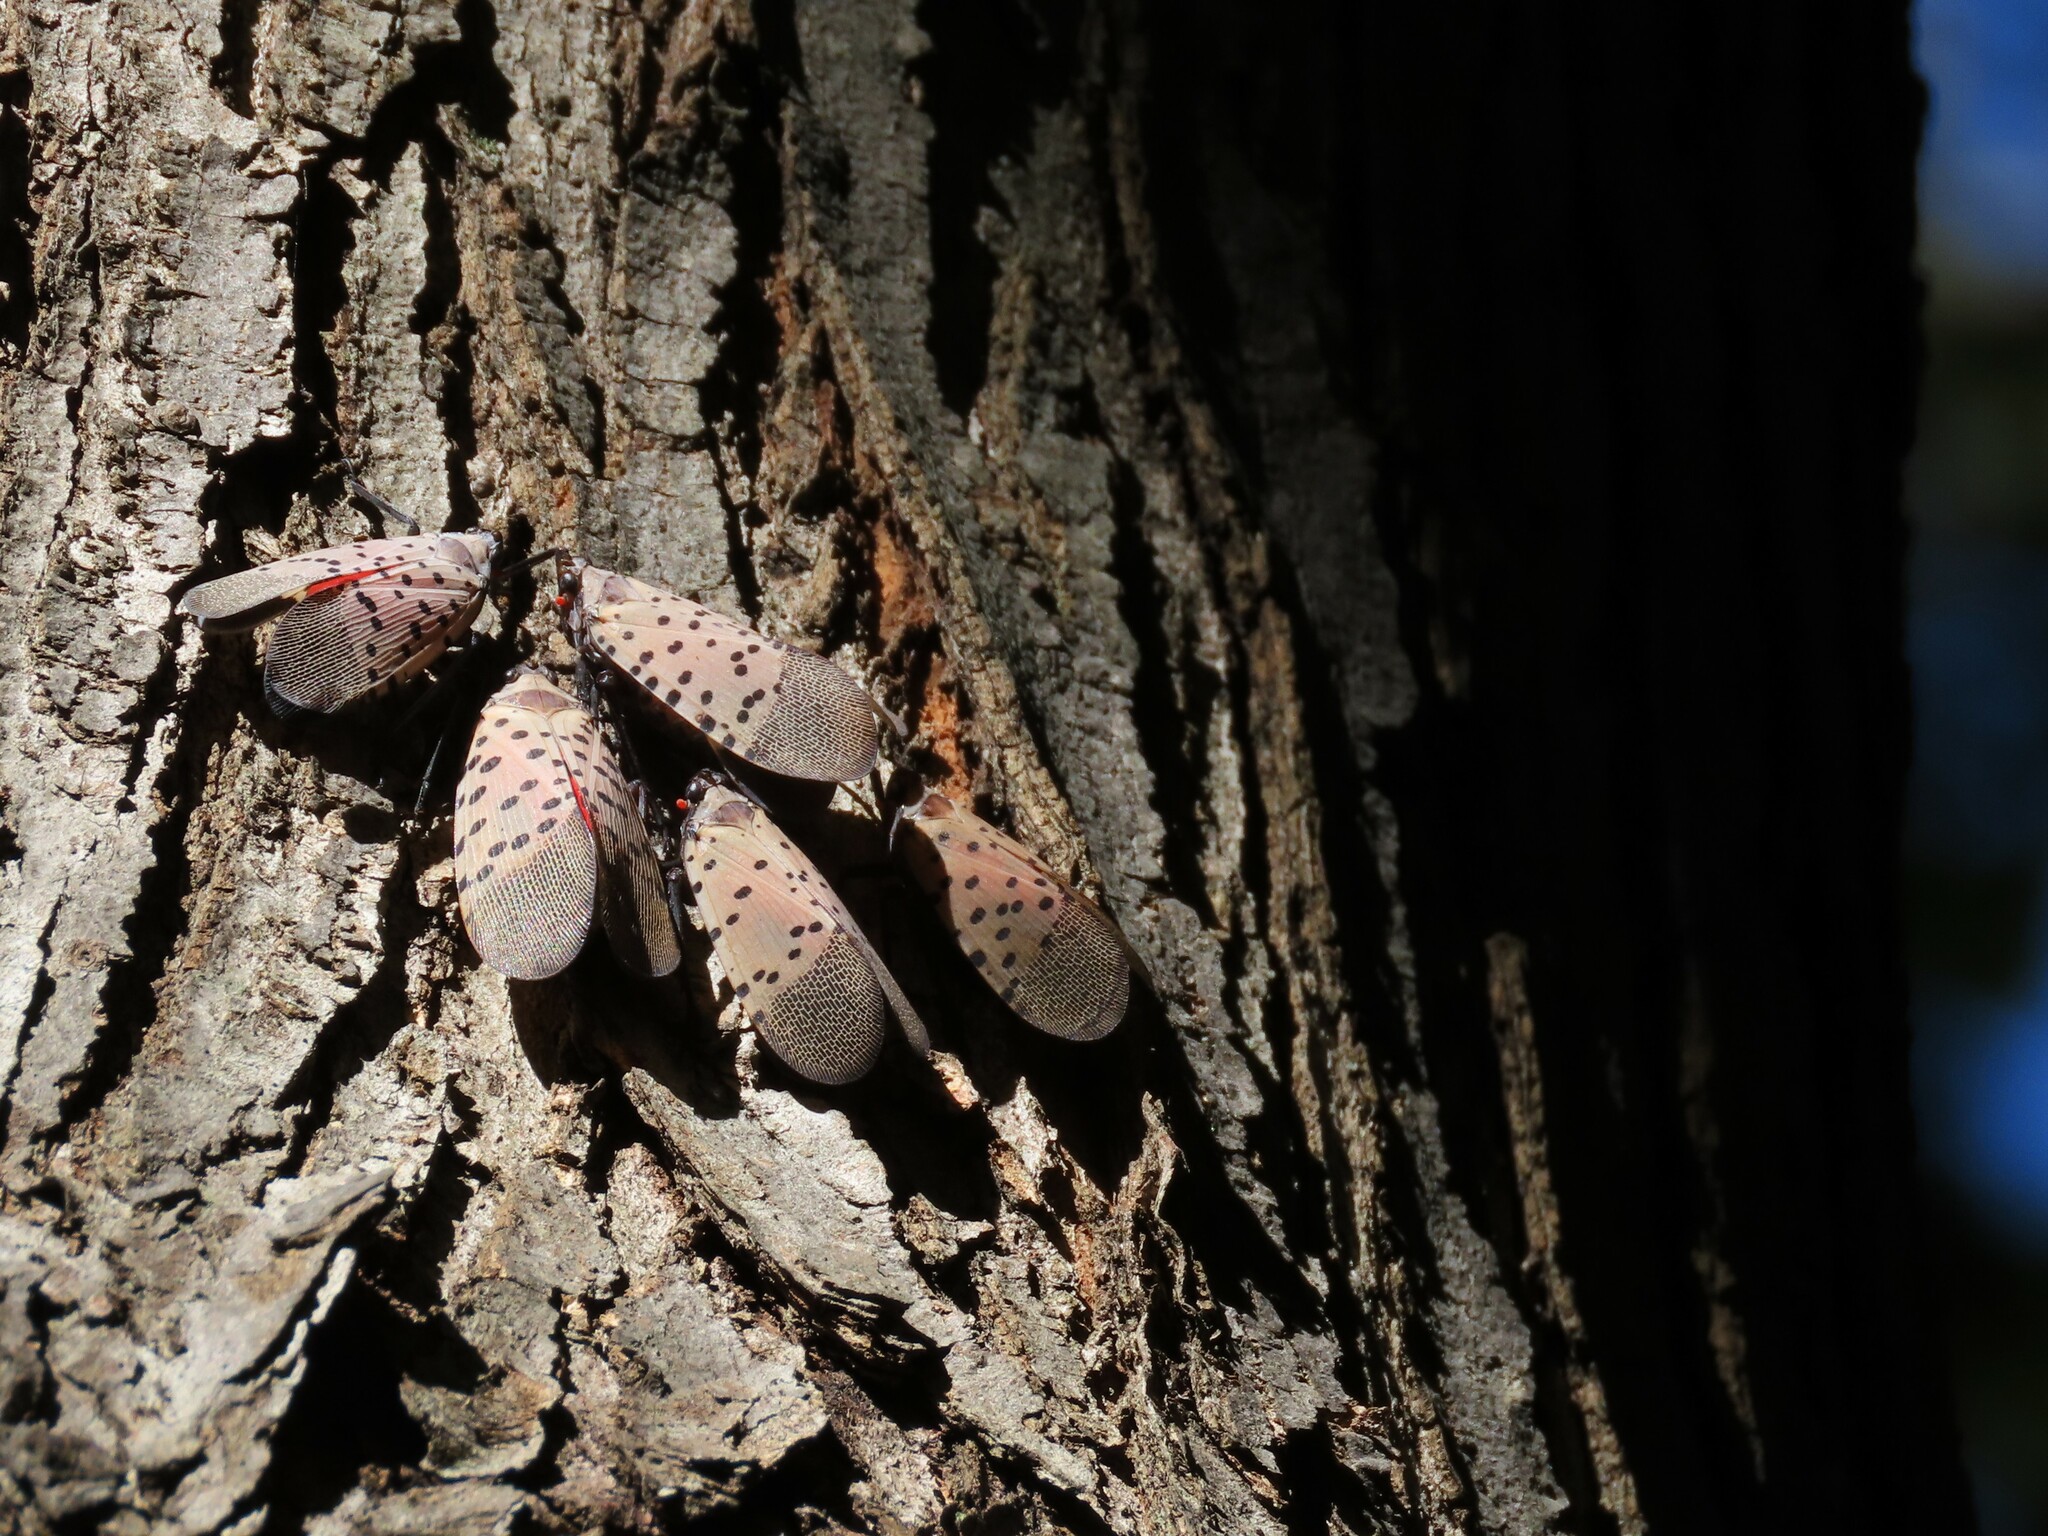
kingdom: Animalia
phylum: Arthropoda
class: Insecta
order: Hemiptera
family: Fulgoridae
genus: Lycorma
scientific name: Lycorma delicatula
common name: Spotted lanternfly
